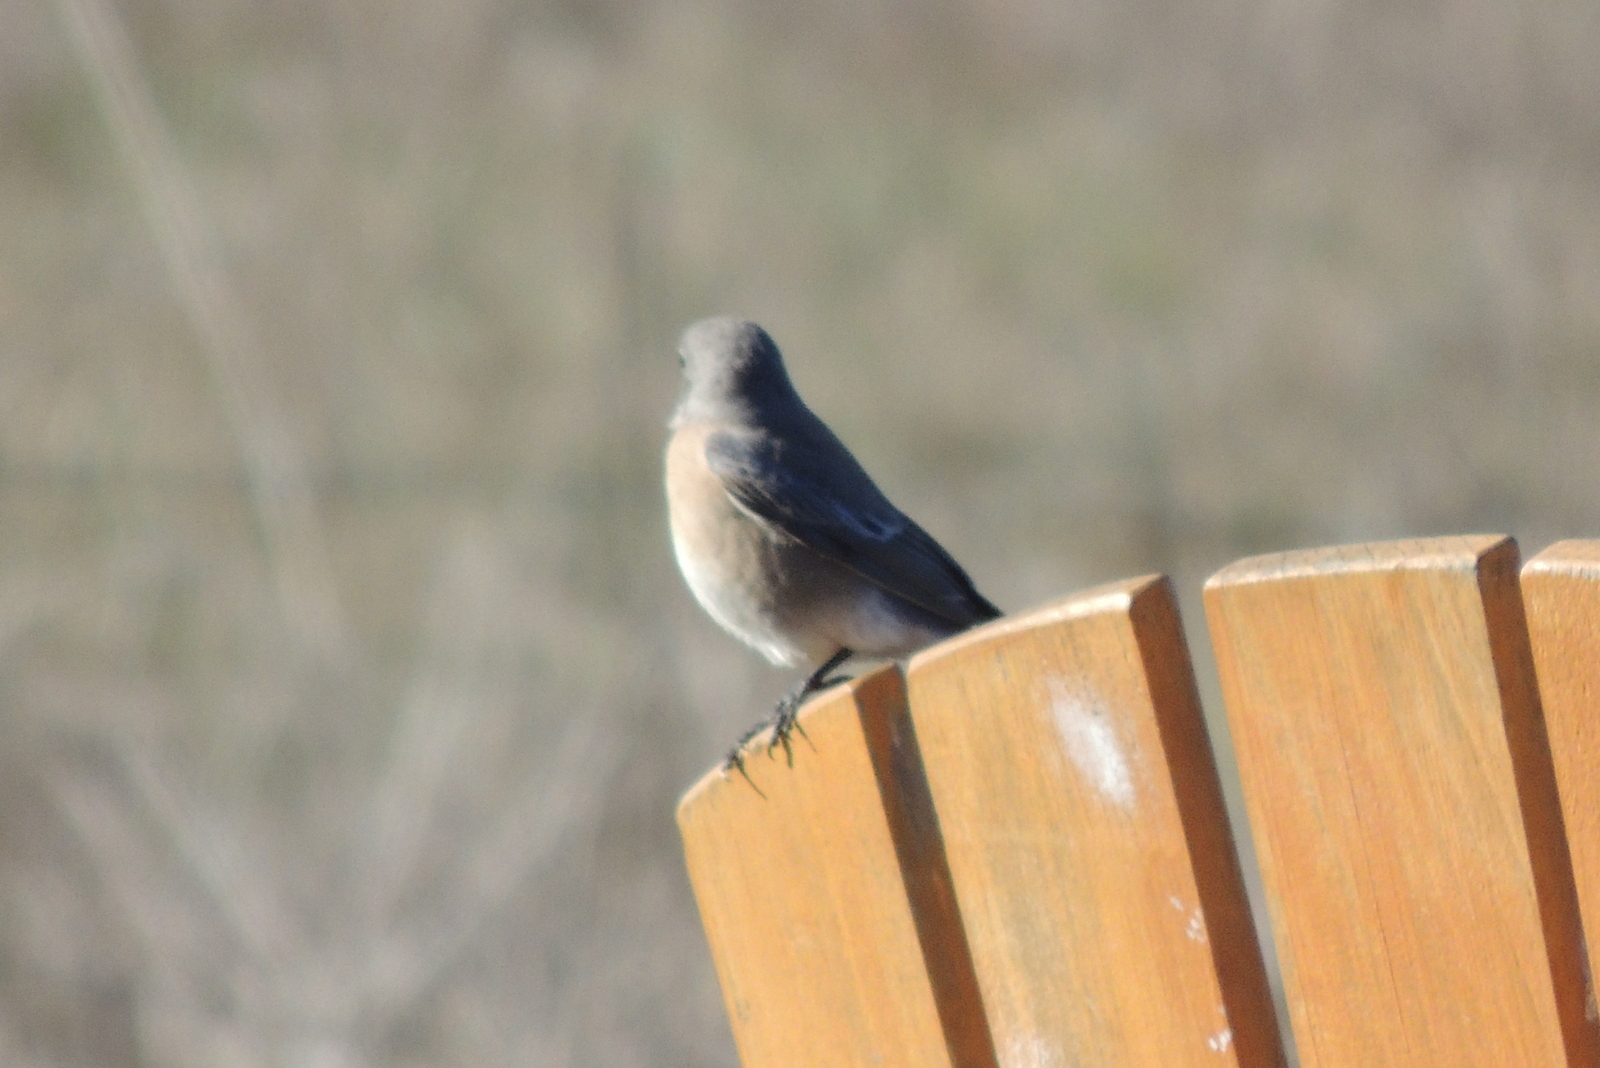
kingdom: Animalia
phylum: Chordata
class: Aves
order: Passeriformes
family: Turdidae
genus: Sialia
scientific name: Sialia mexicana
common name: Western bluebird
